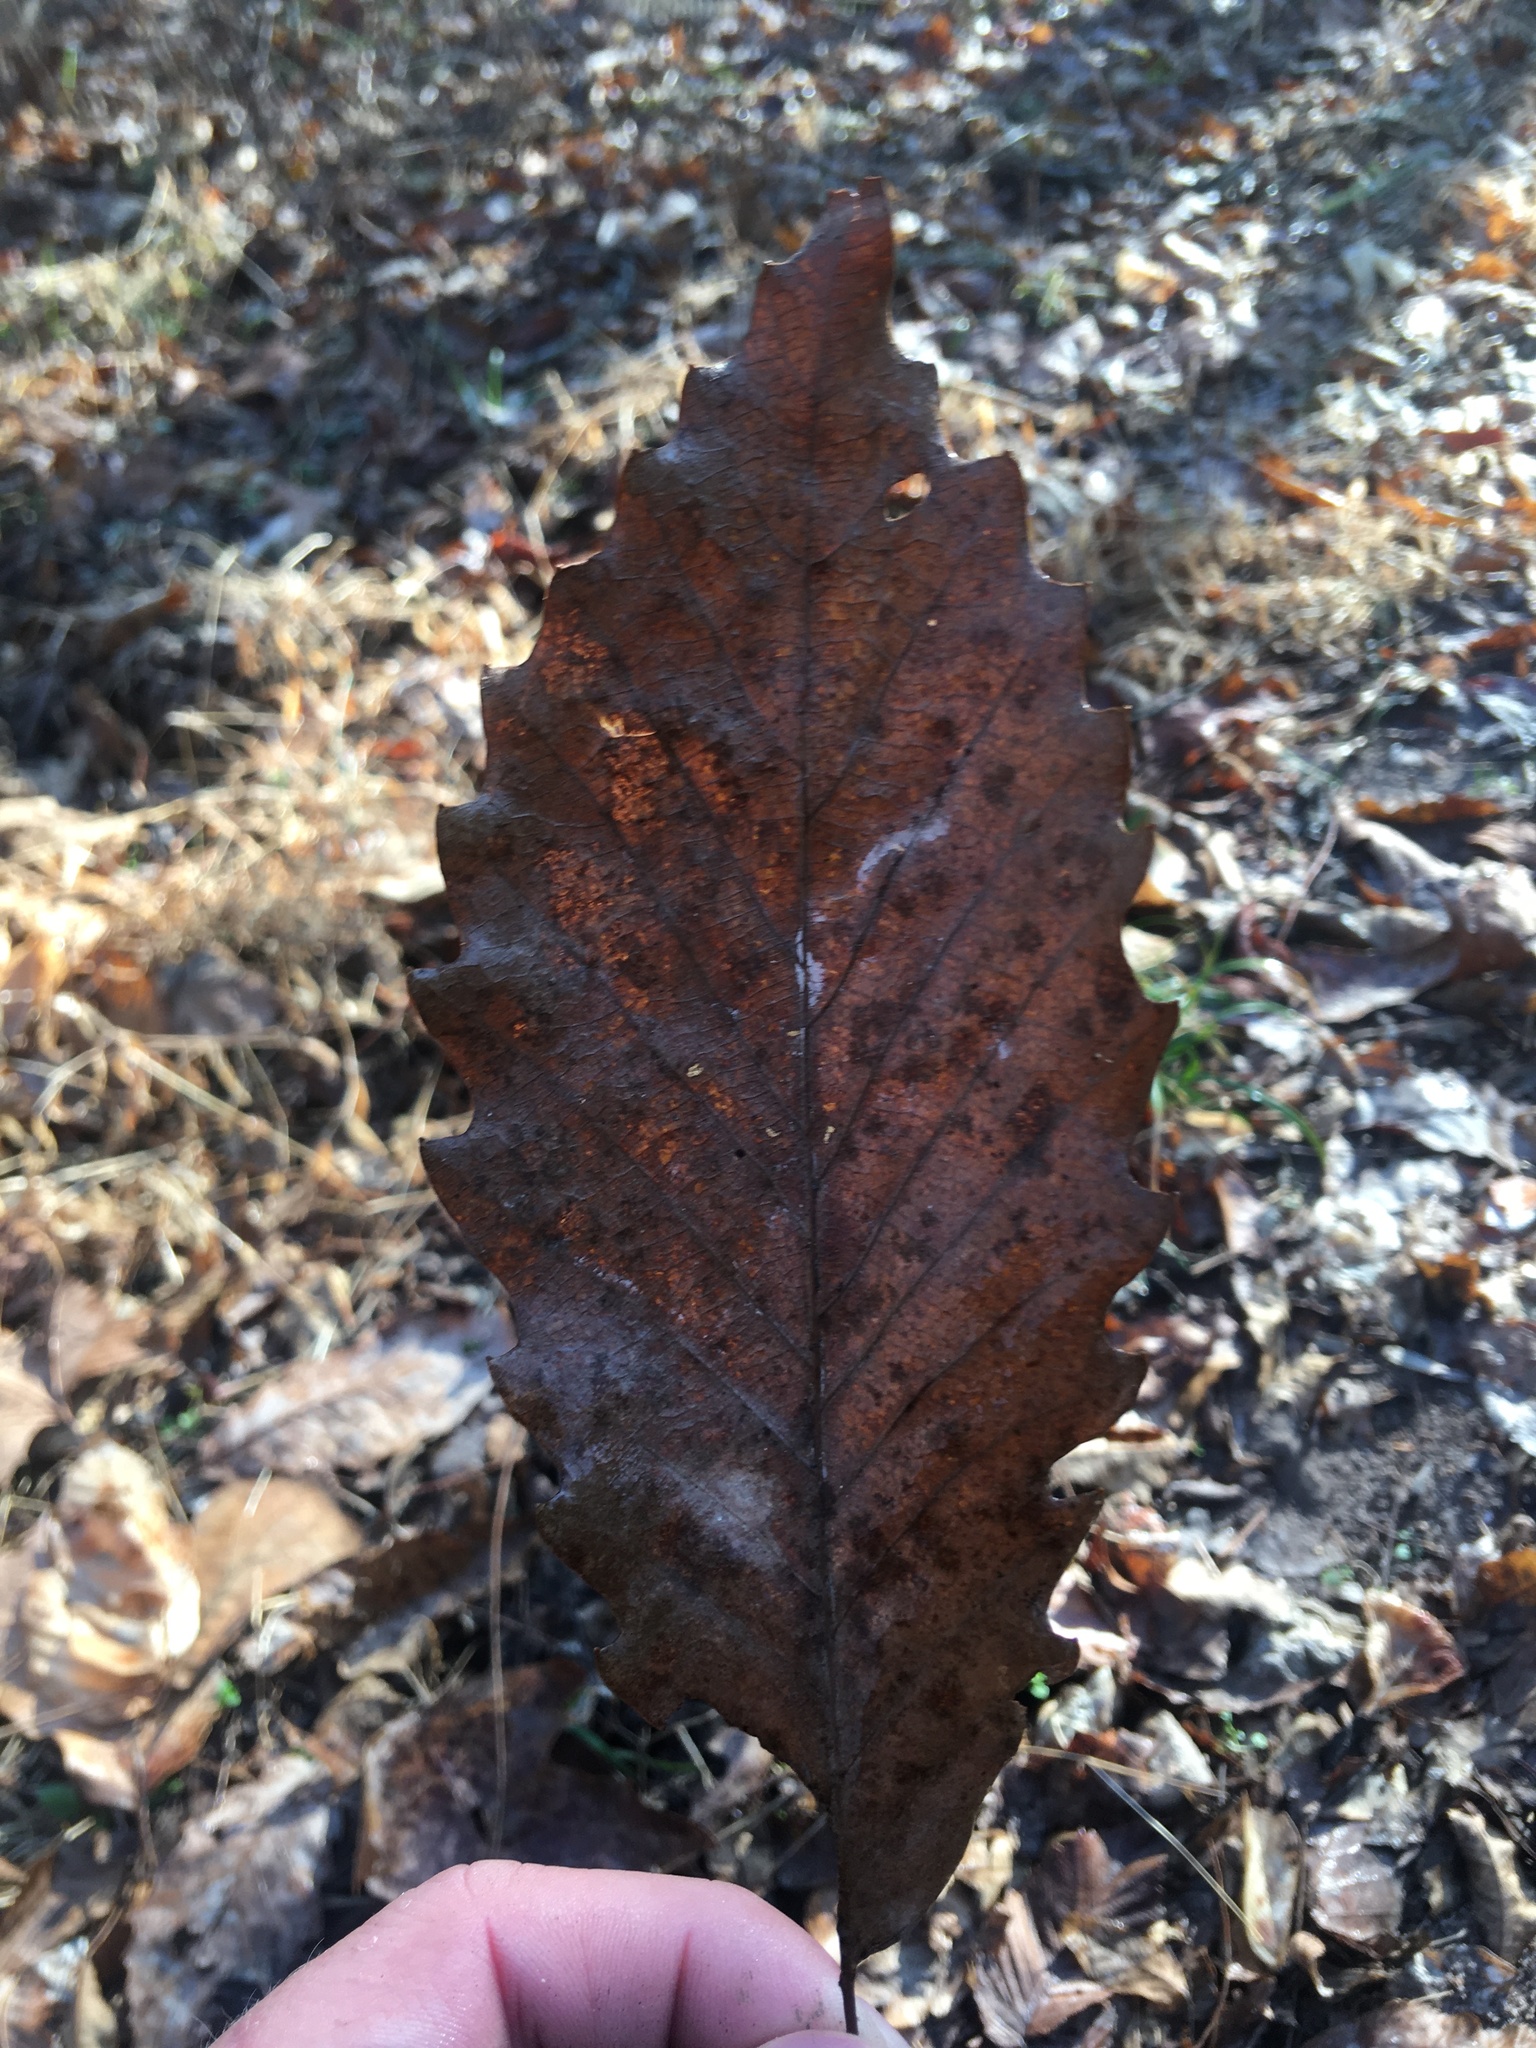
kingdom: Plantae
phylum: Tracheophyta
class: Magnoliopsida
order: Fagales
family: Fagaceae
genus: Quercus
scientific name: Quercus muehlenbergii
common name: Chinkapin oak
